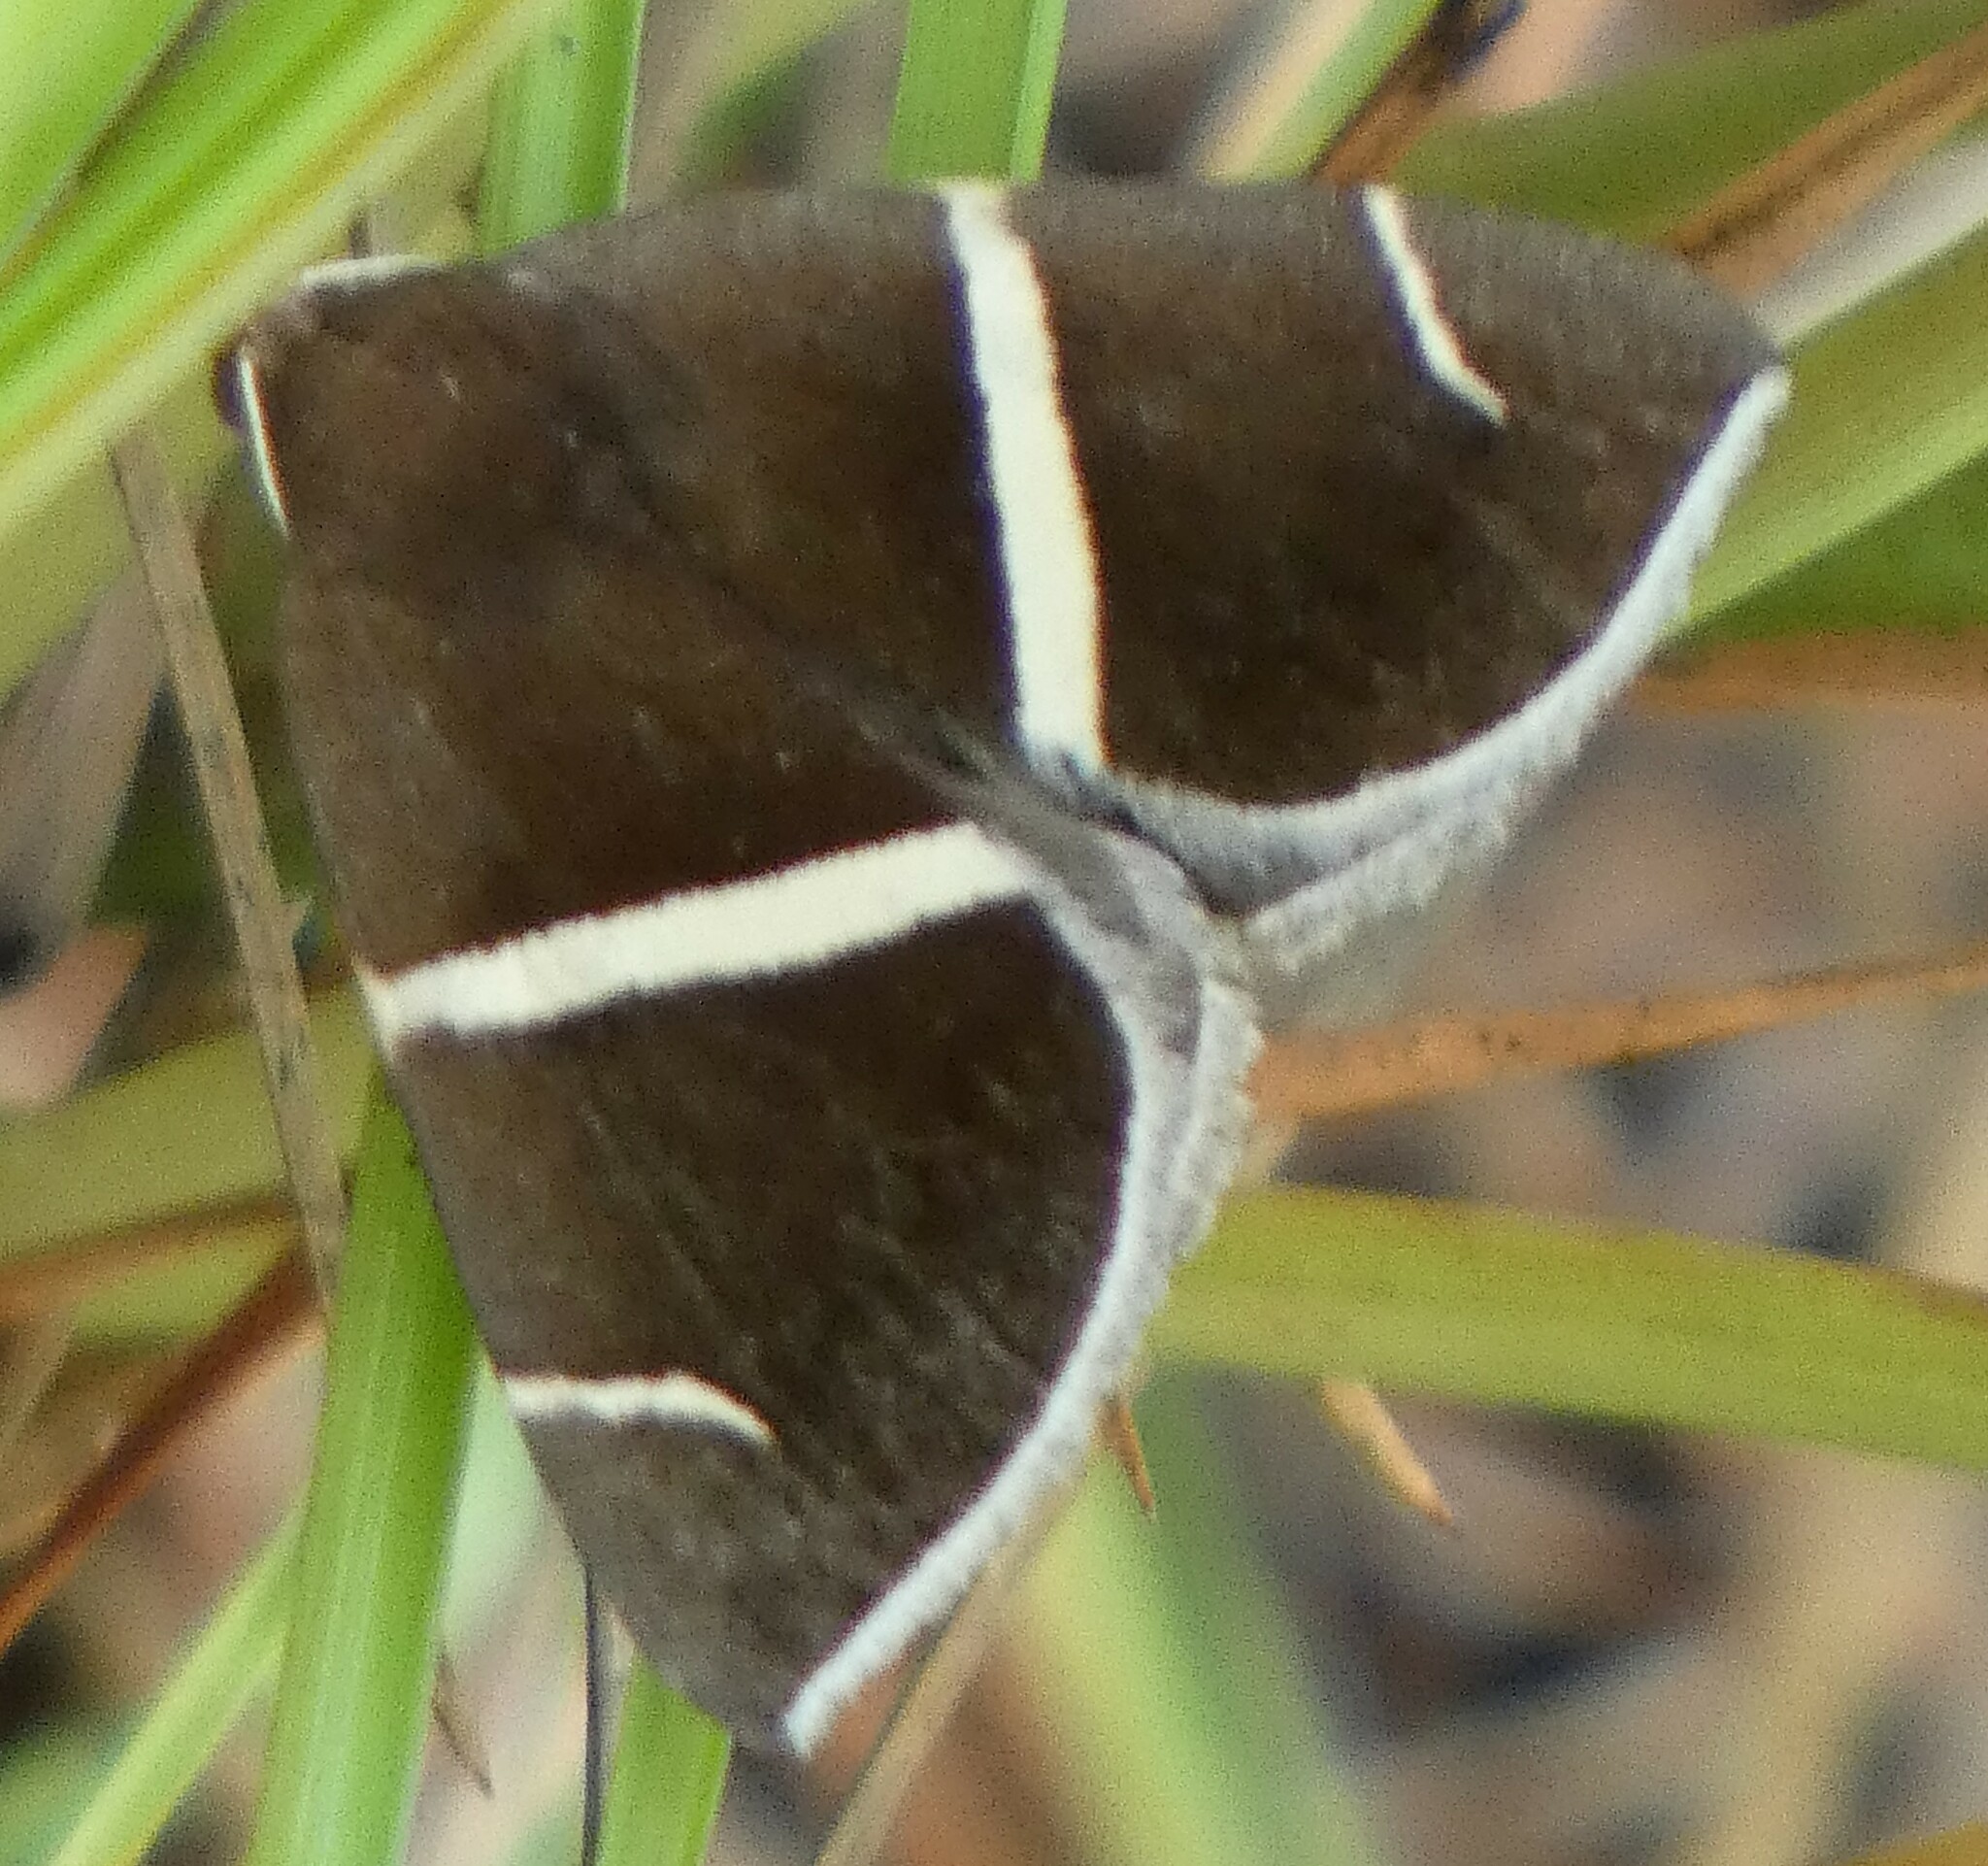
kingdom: Animalia
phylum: Arthropoda
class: Insecta
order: Lepidoptera
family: Erebidae
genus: Argyrostrotis
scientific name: Argyrostrotis anilis
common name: Short-lined chocolate
